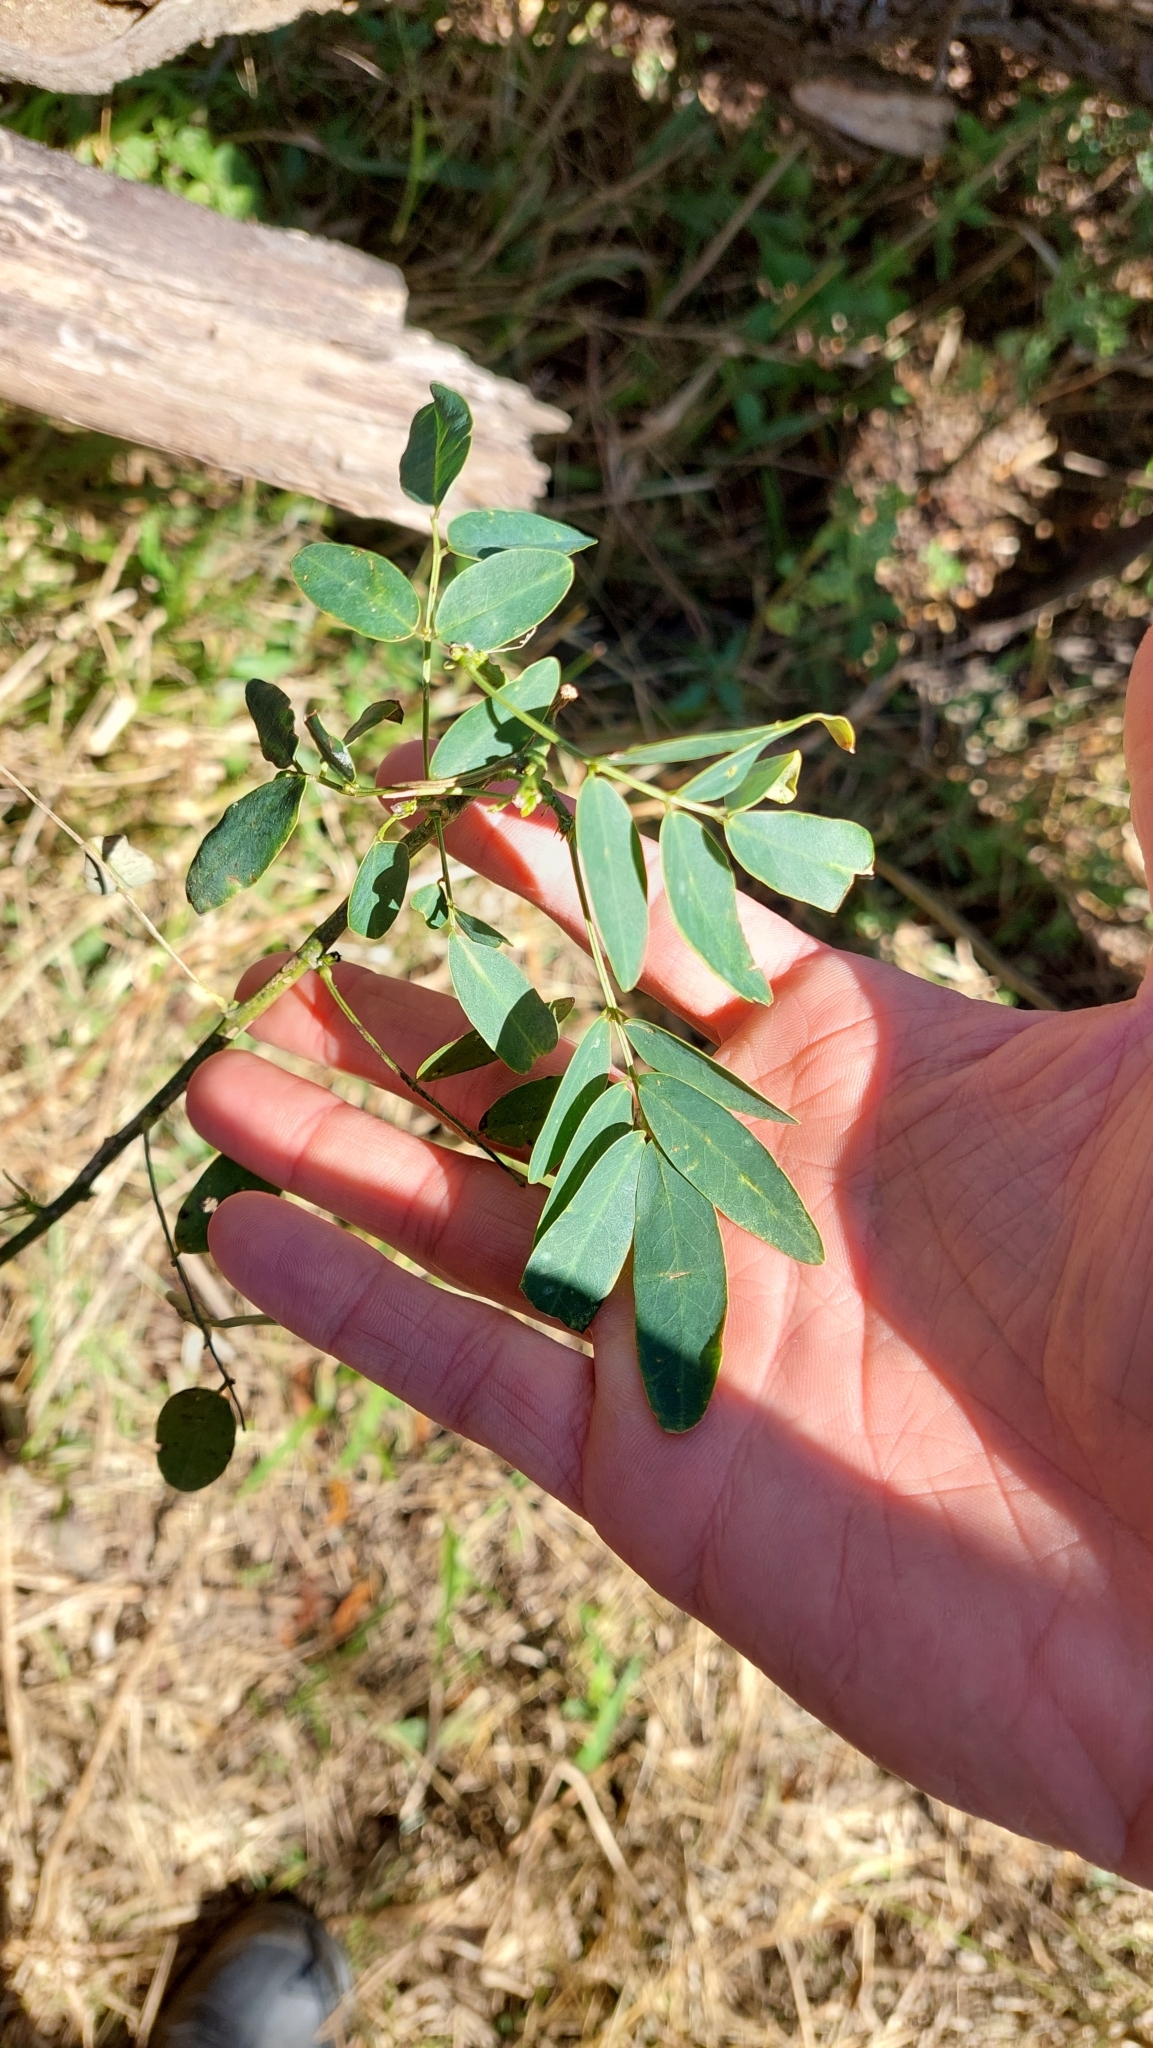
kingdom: Plantae
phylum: Tracheophyta
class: Magnoliopsida
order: Fabales
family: Fabaceae
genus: Senna
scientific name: Senna corymbosa
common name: Argentine senna
